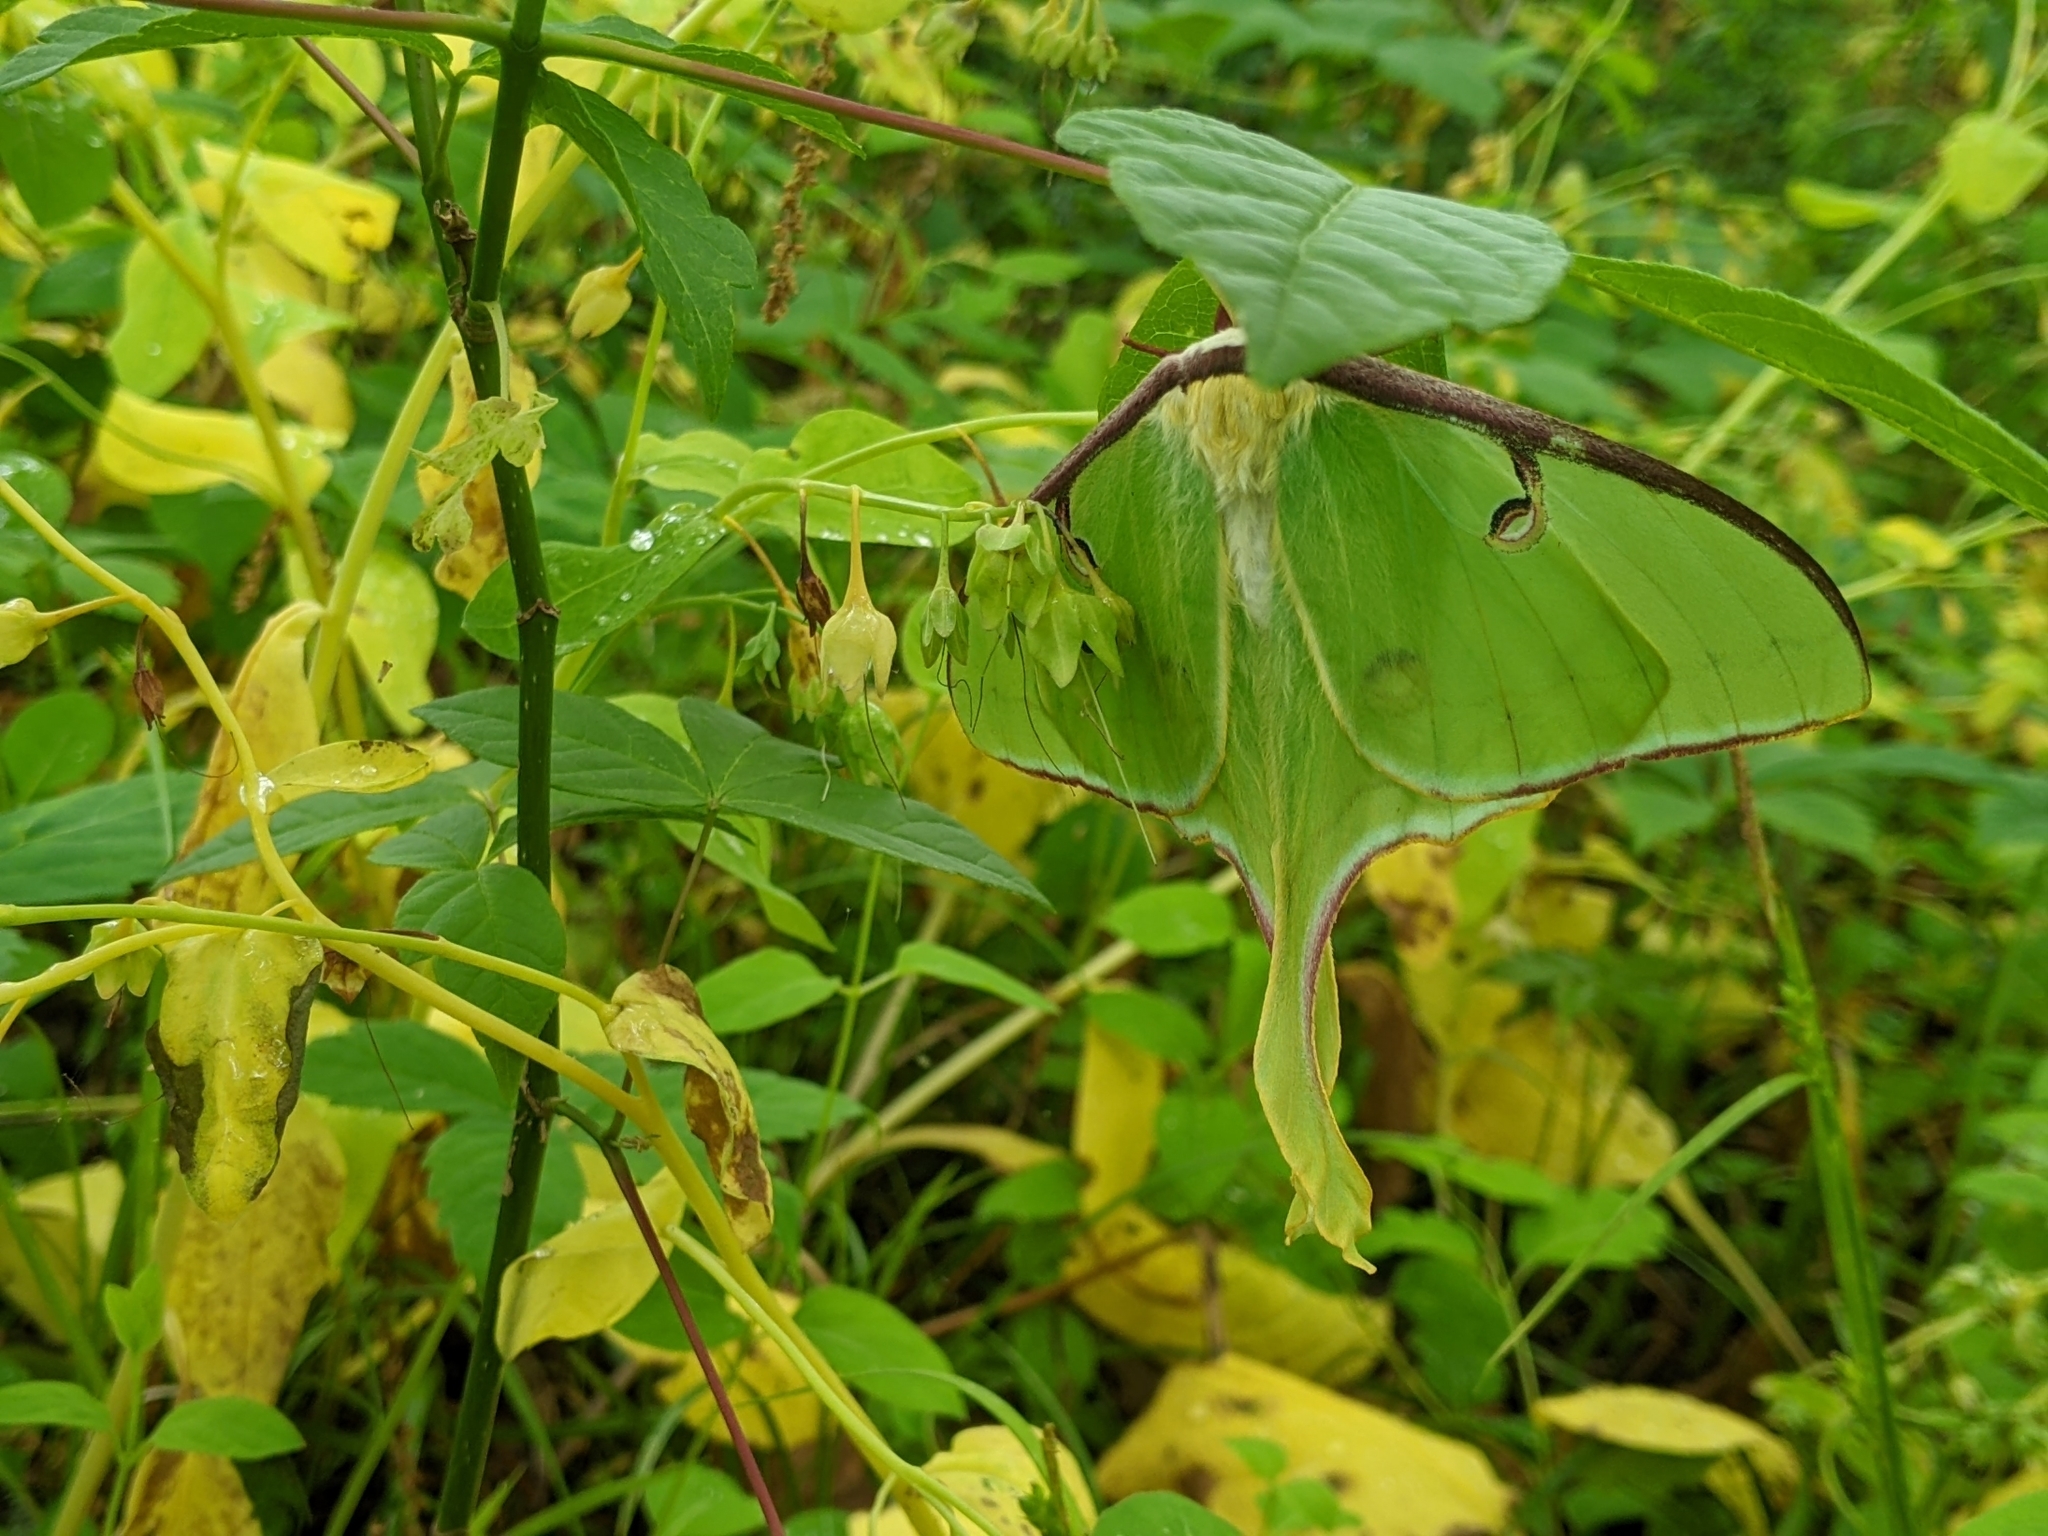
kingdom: Animalia
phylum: Arthropoda
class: Insecta
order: Lepidoptera
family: Saturniidae
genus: Actias
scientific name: Actias luna
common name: Luna moth
